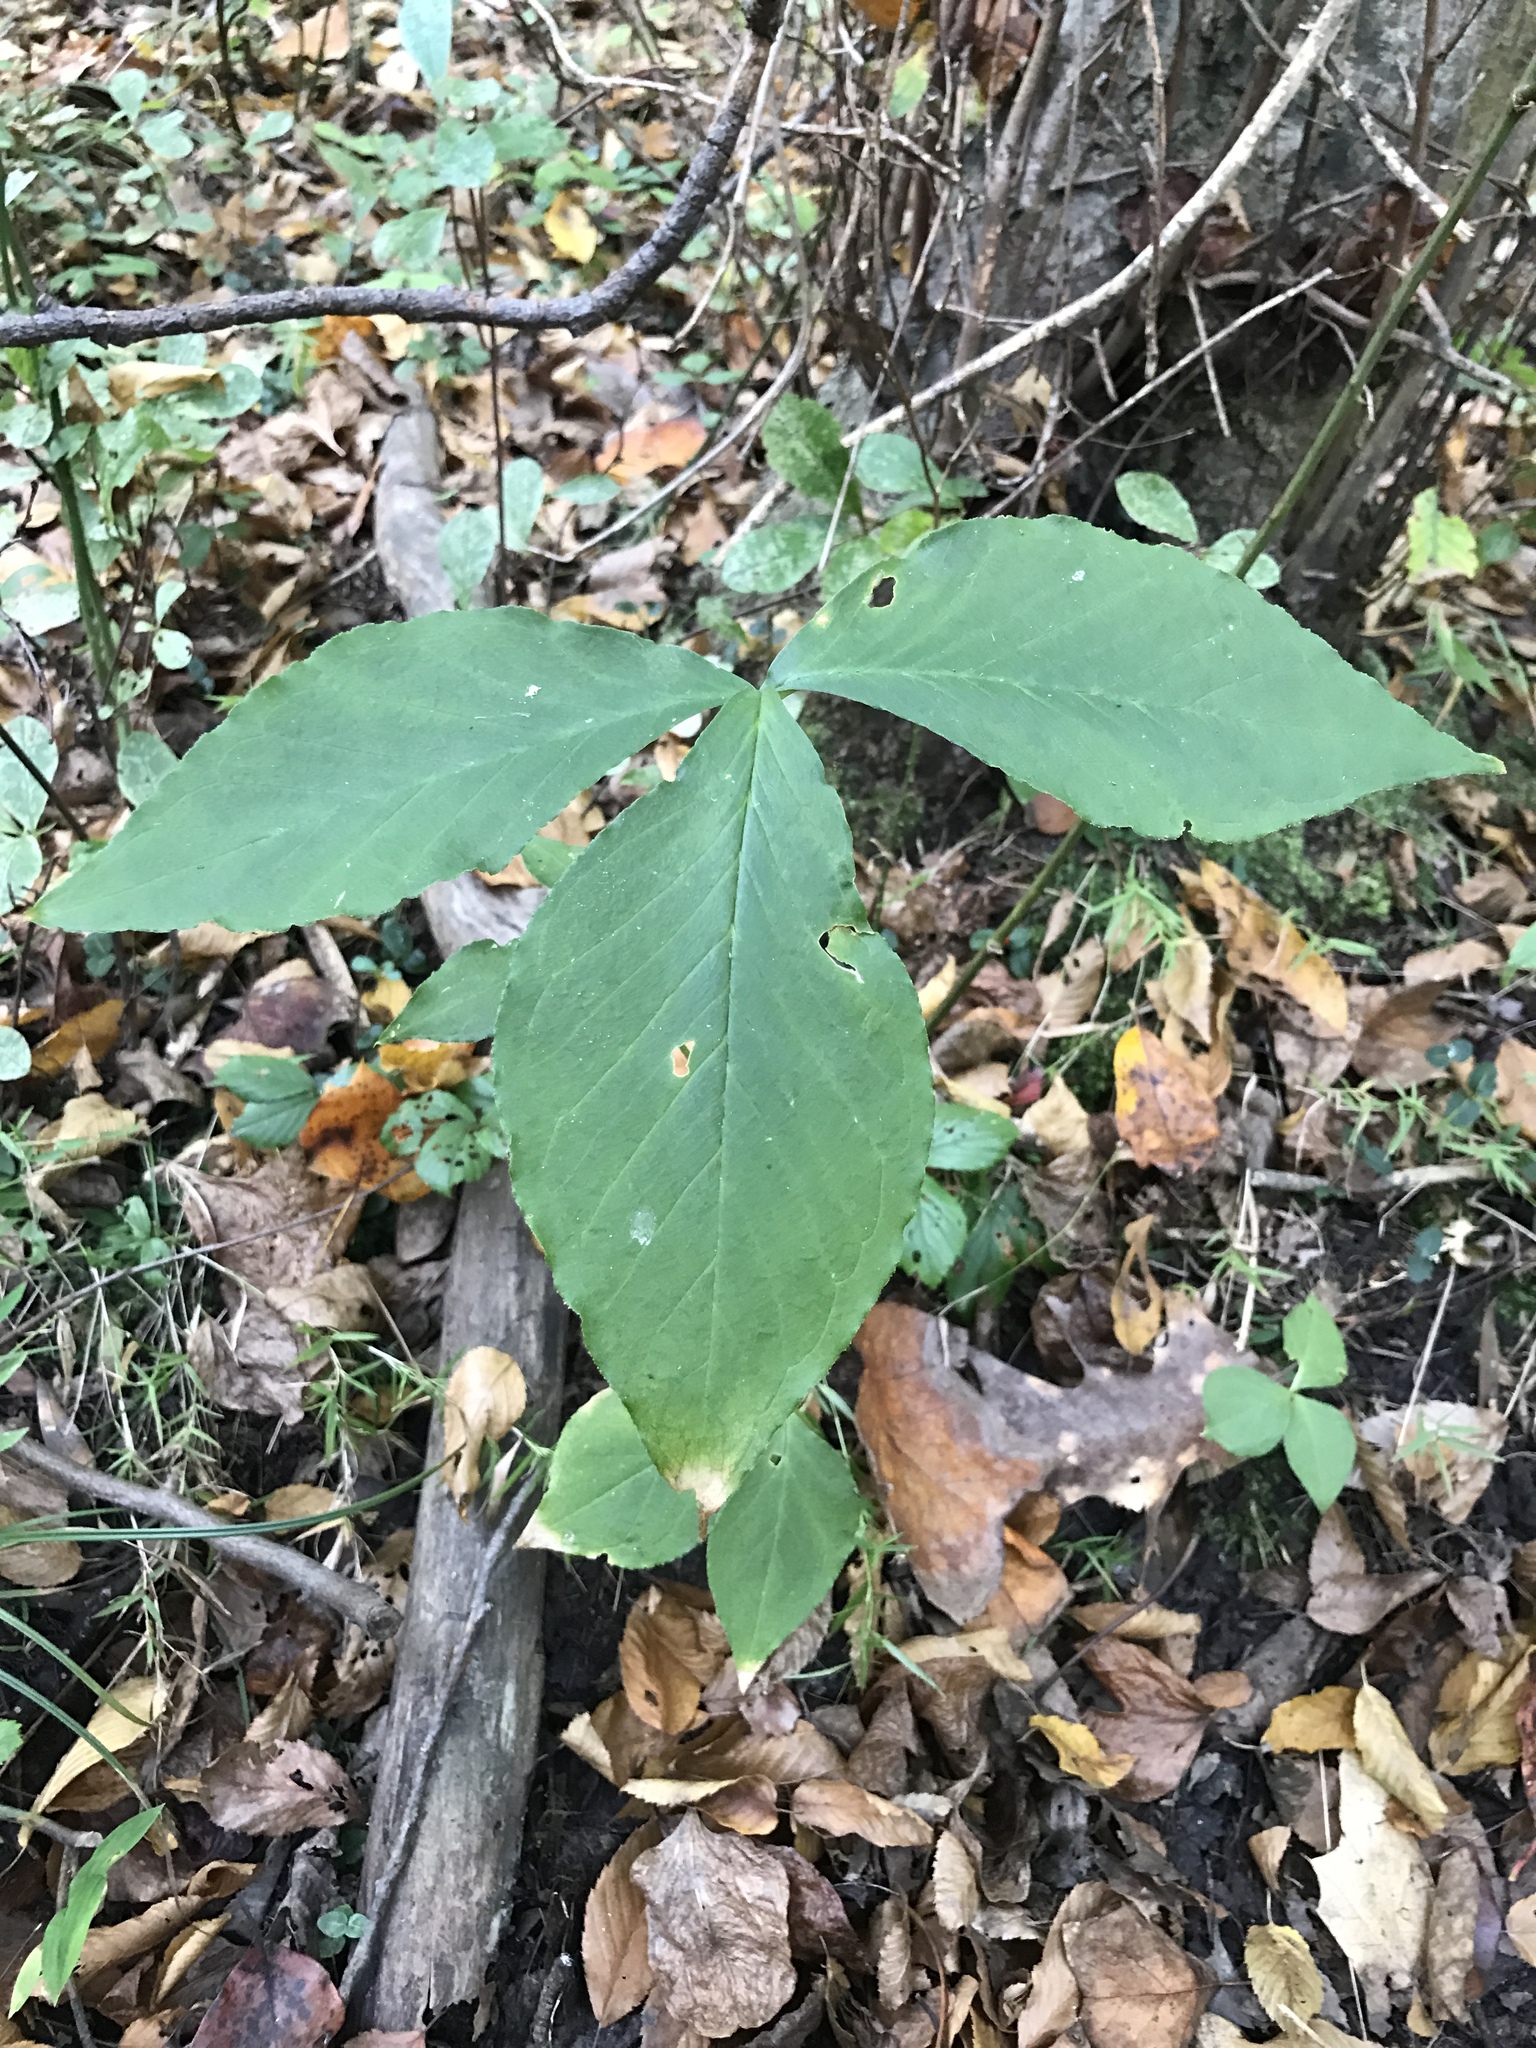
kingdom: Plantae
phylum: Tracheophyta
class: Liliopsida
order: Alismatales
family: Araceae
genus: Arisaema
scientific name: Arisaema triphyllum
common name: Jack-in-the-pulpit
